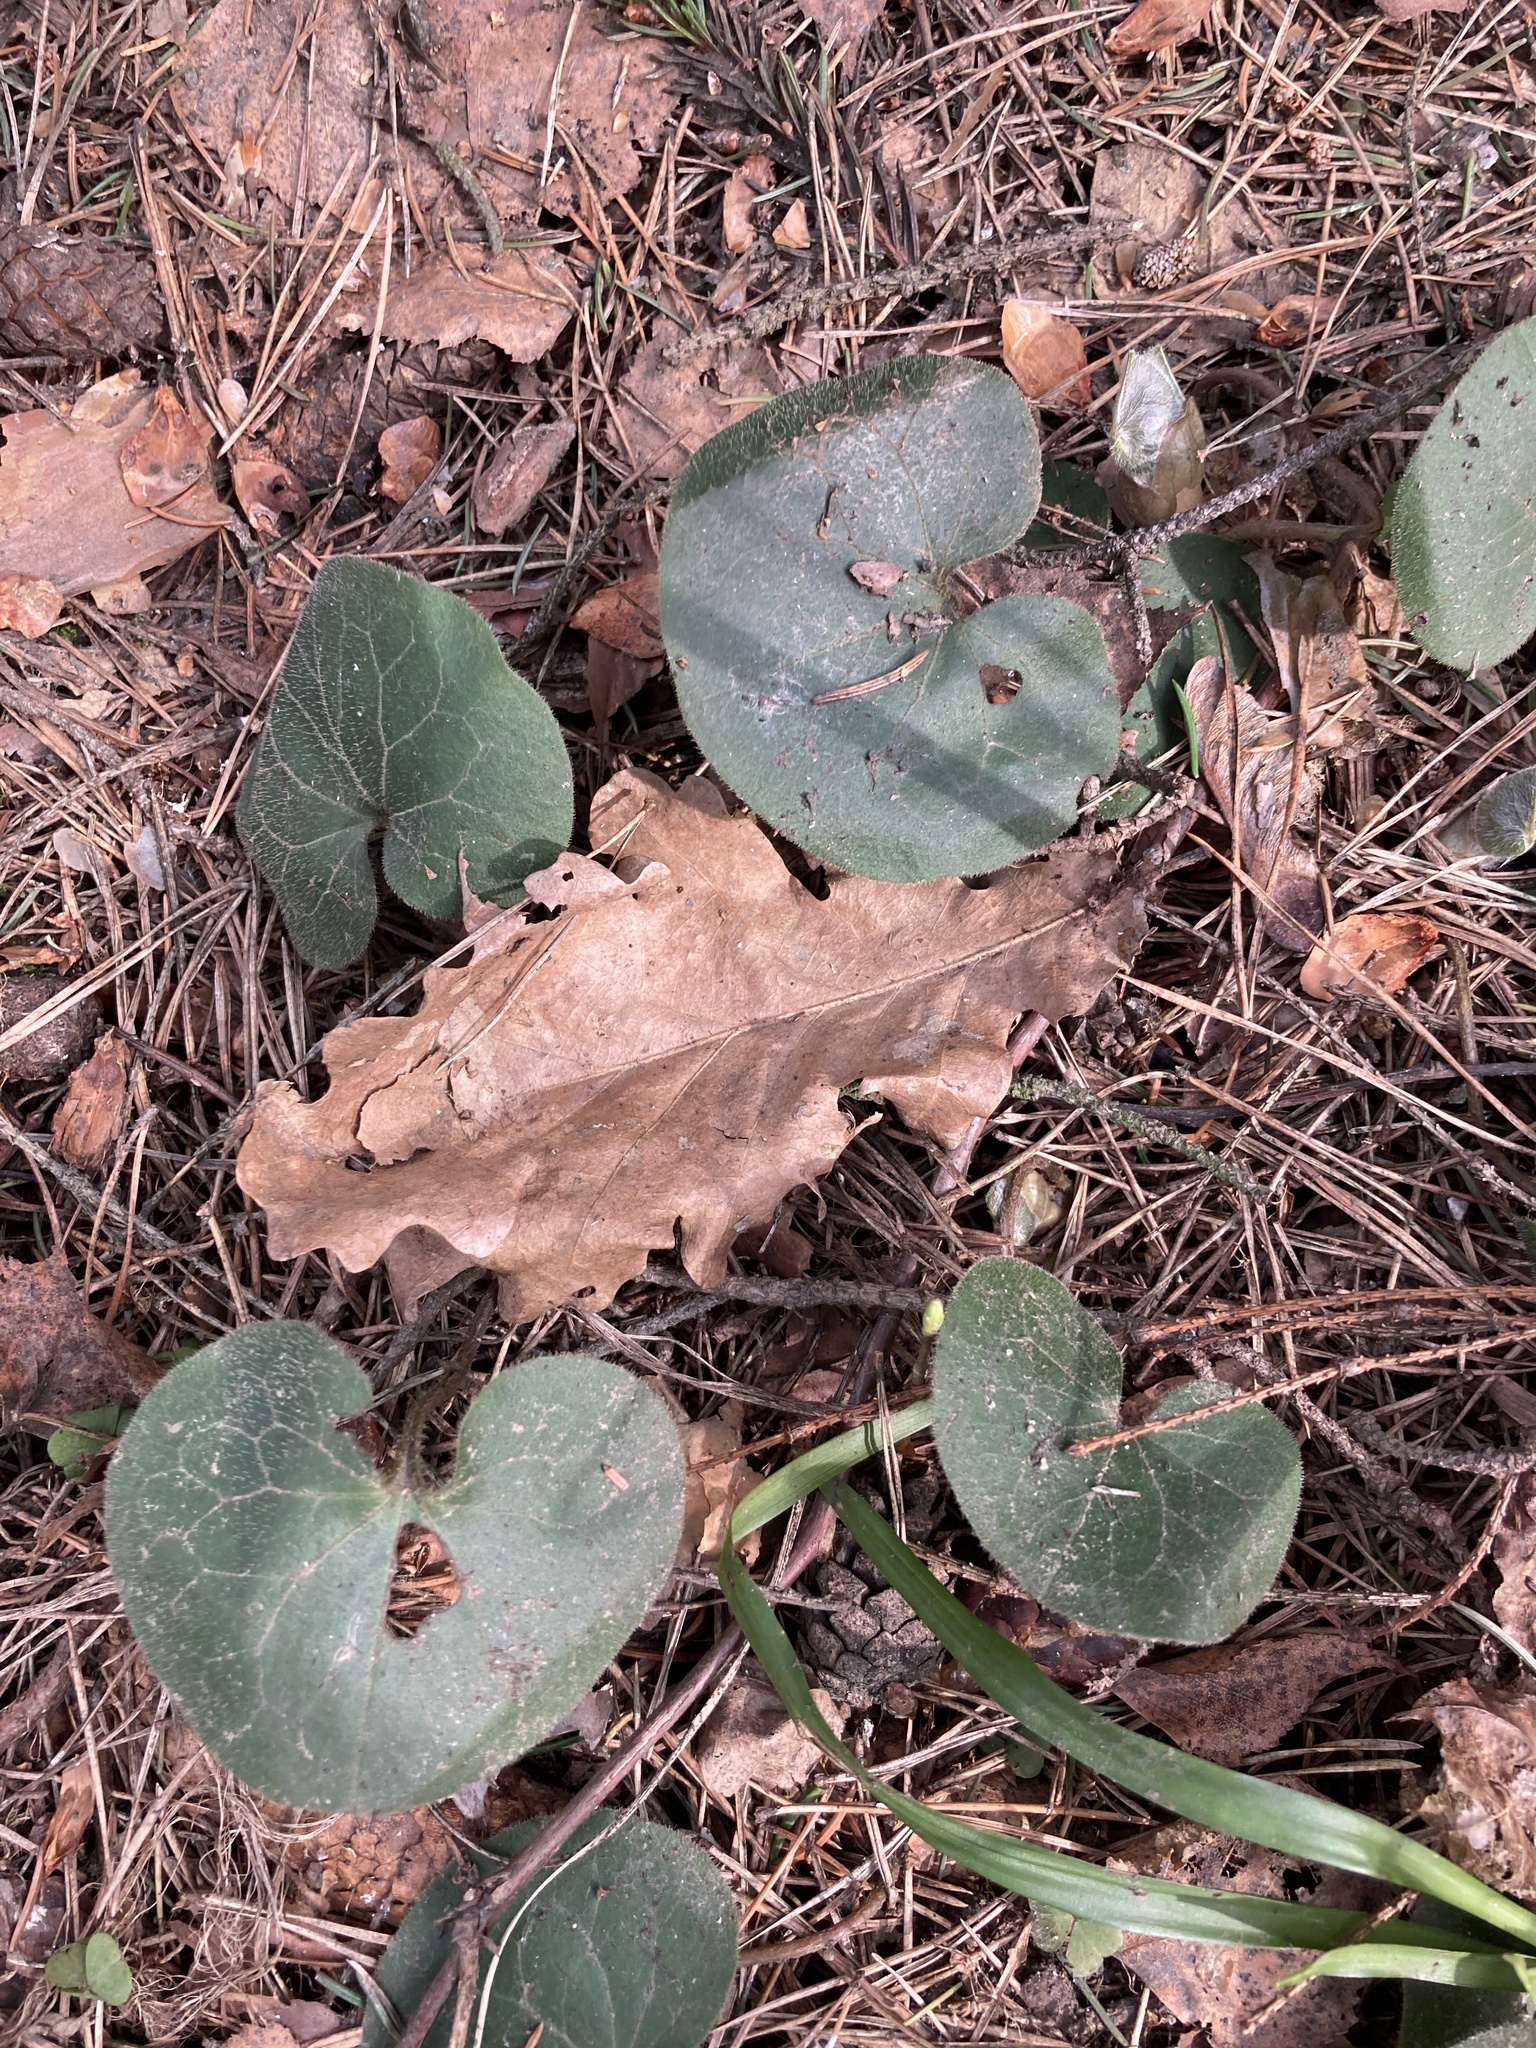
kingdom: Plantae
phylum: Tracheophyta
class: Magnoliopsida
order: Piperales
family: Aristolochiaceae
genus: Asarum
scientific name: Asarum europaeum
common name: Asarabacca
